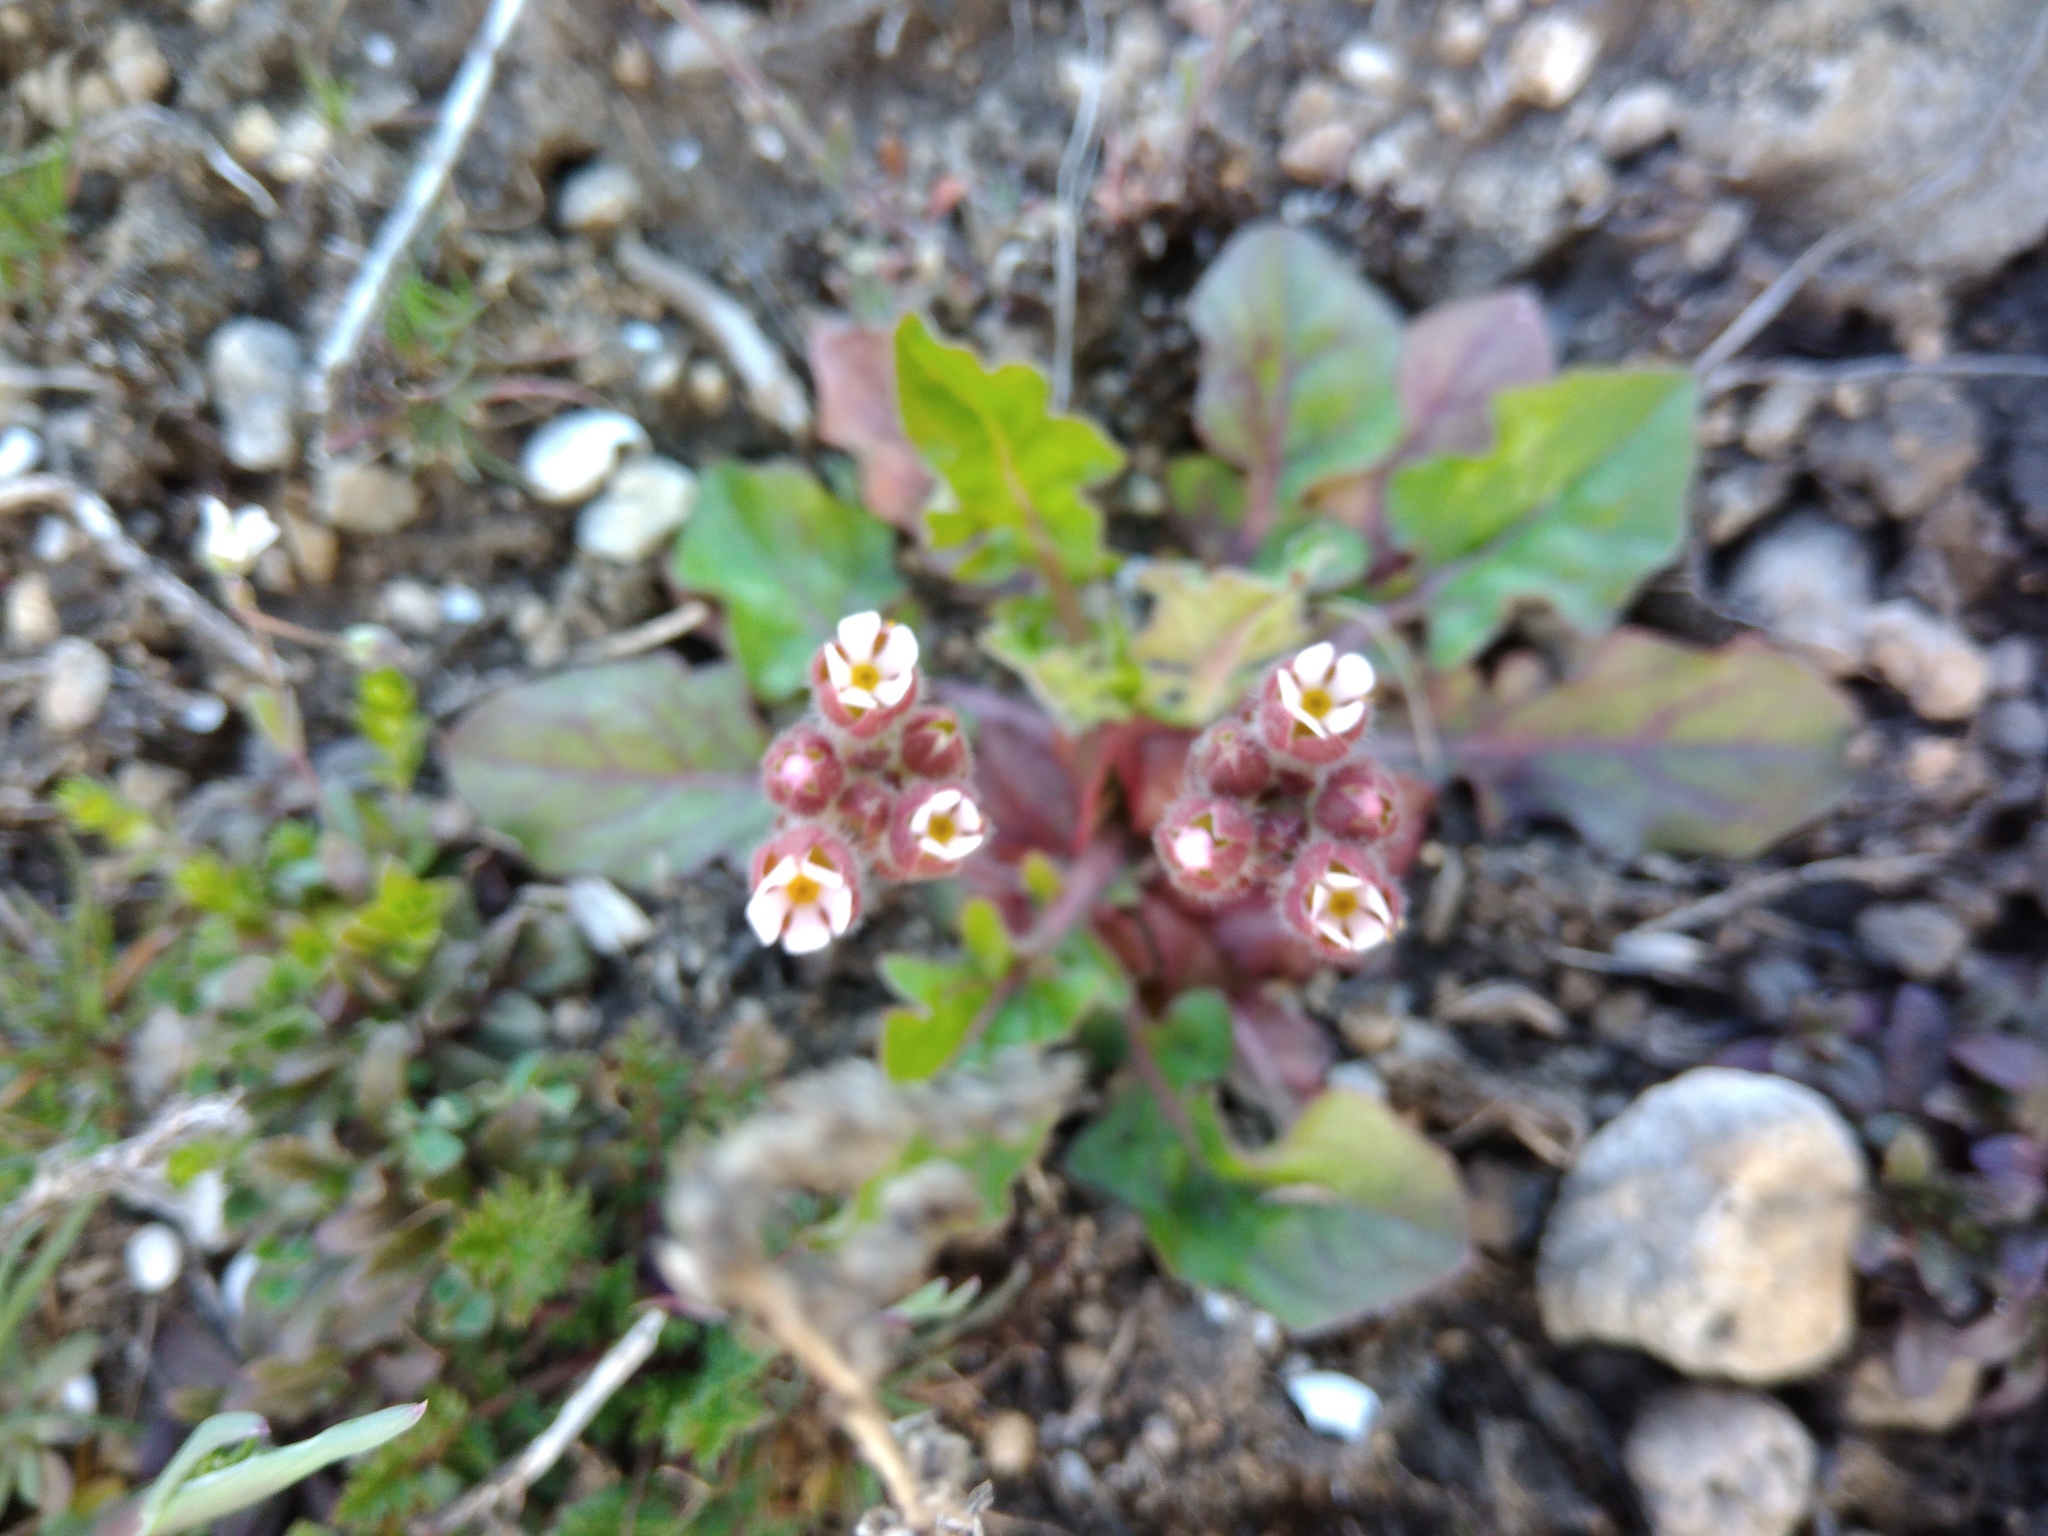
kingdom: Plantae
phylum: Tracheophyta
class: Magnoliopsida
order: Ericales
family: Primulaceae
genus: Androsace
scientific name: Androsace maxima
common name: Annual androsace
